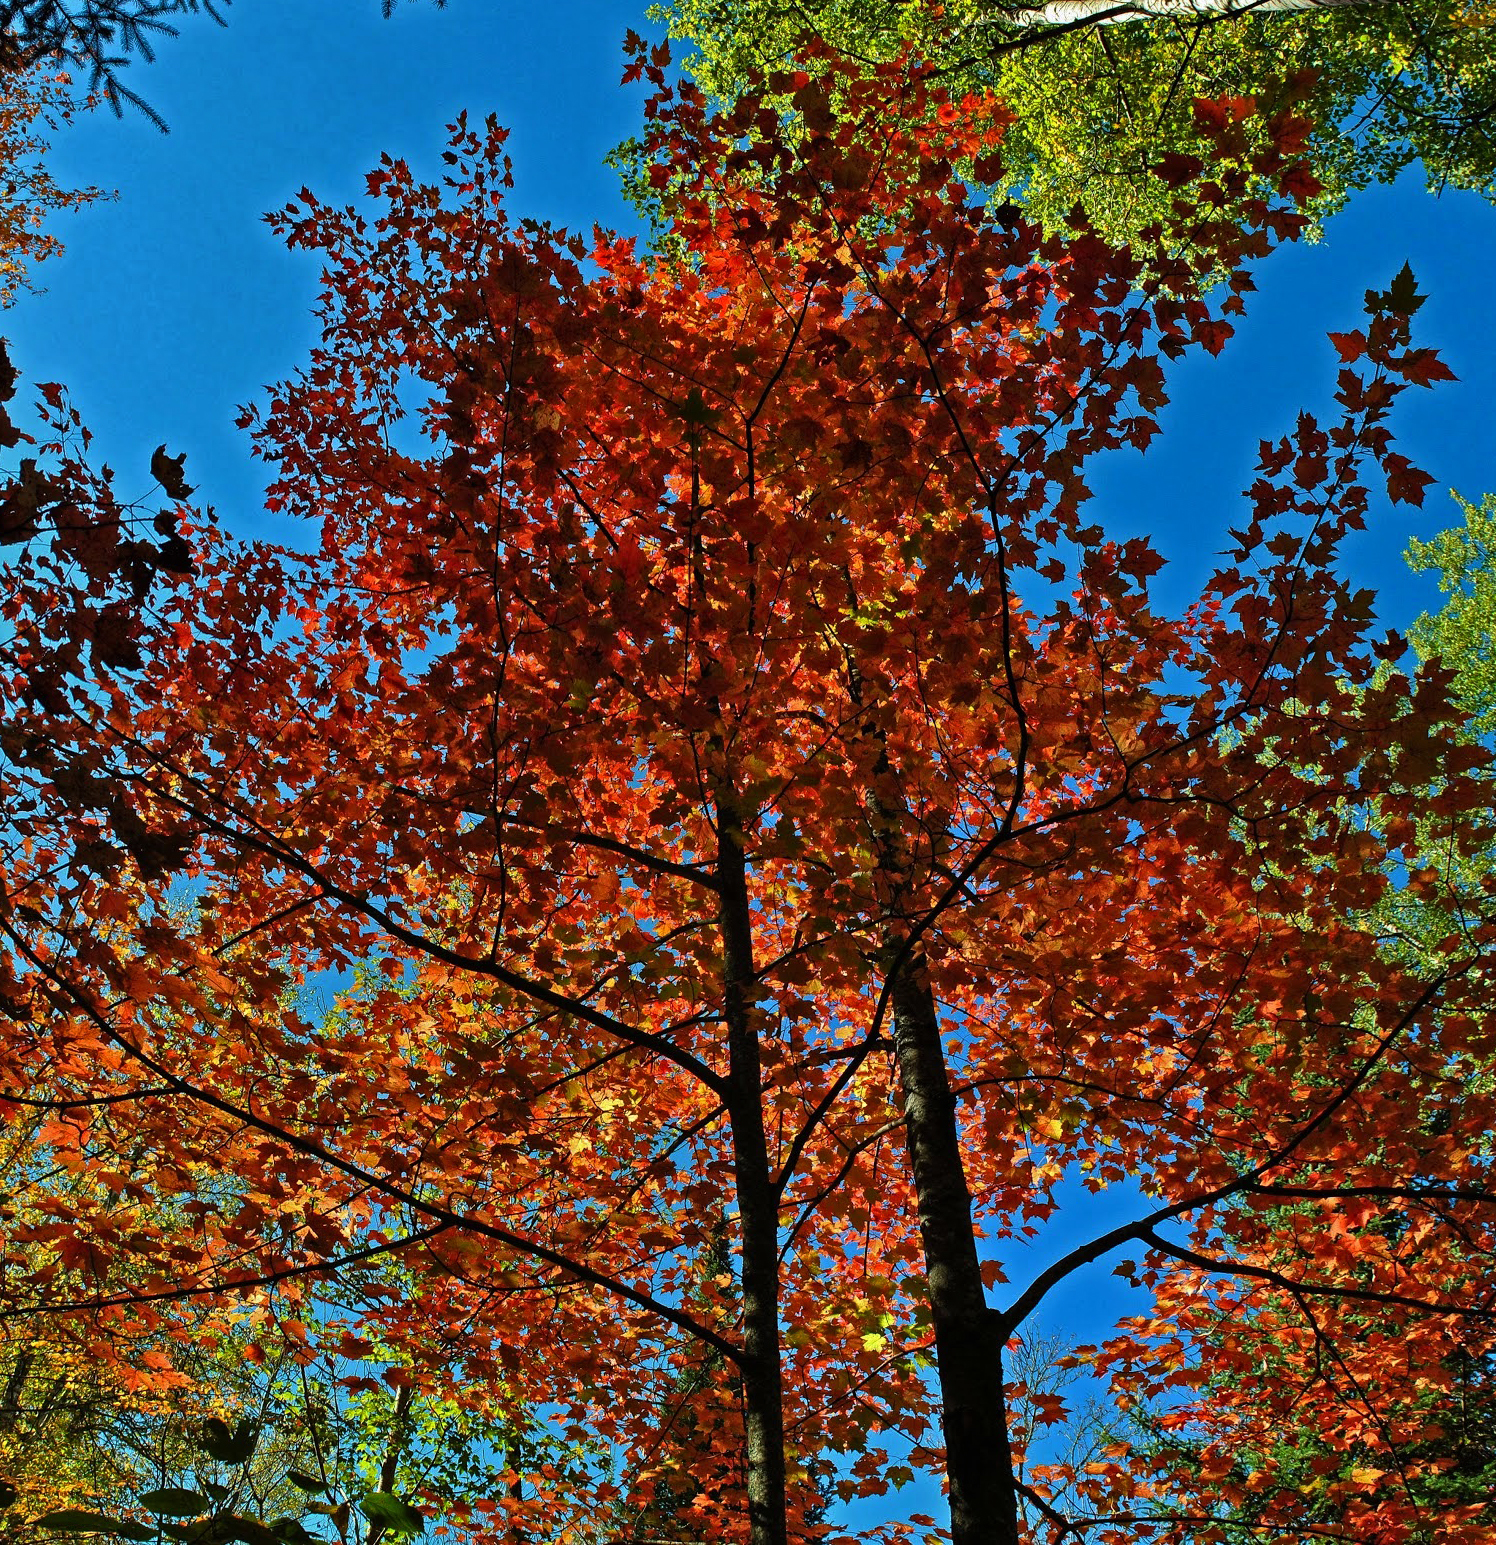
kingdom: Plantae
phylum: Tracheophyta
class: Magnoliopsida
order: Sapindales
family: Sapindaceae
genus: Acer
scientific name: Acer rubrum
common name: Red maple
